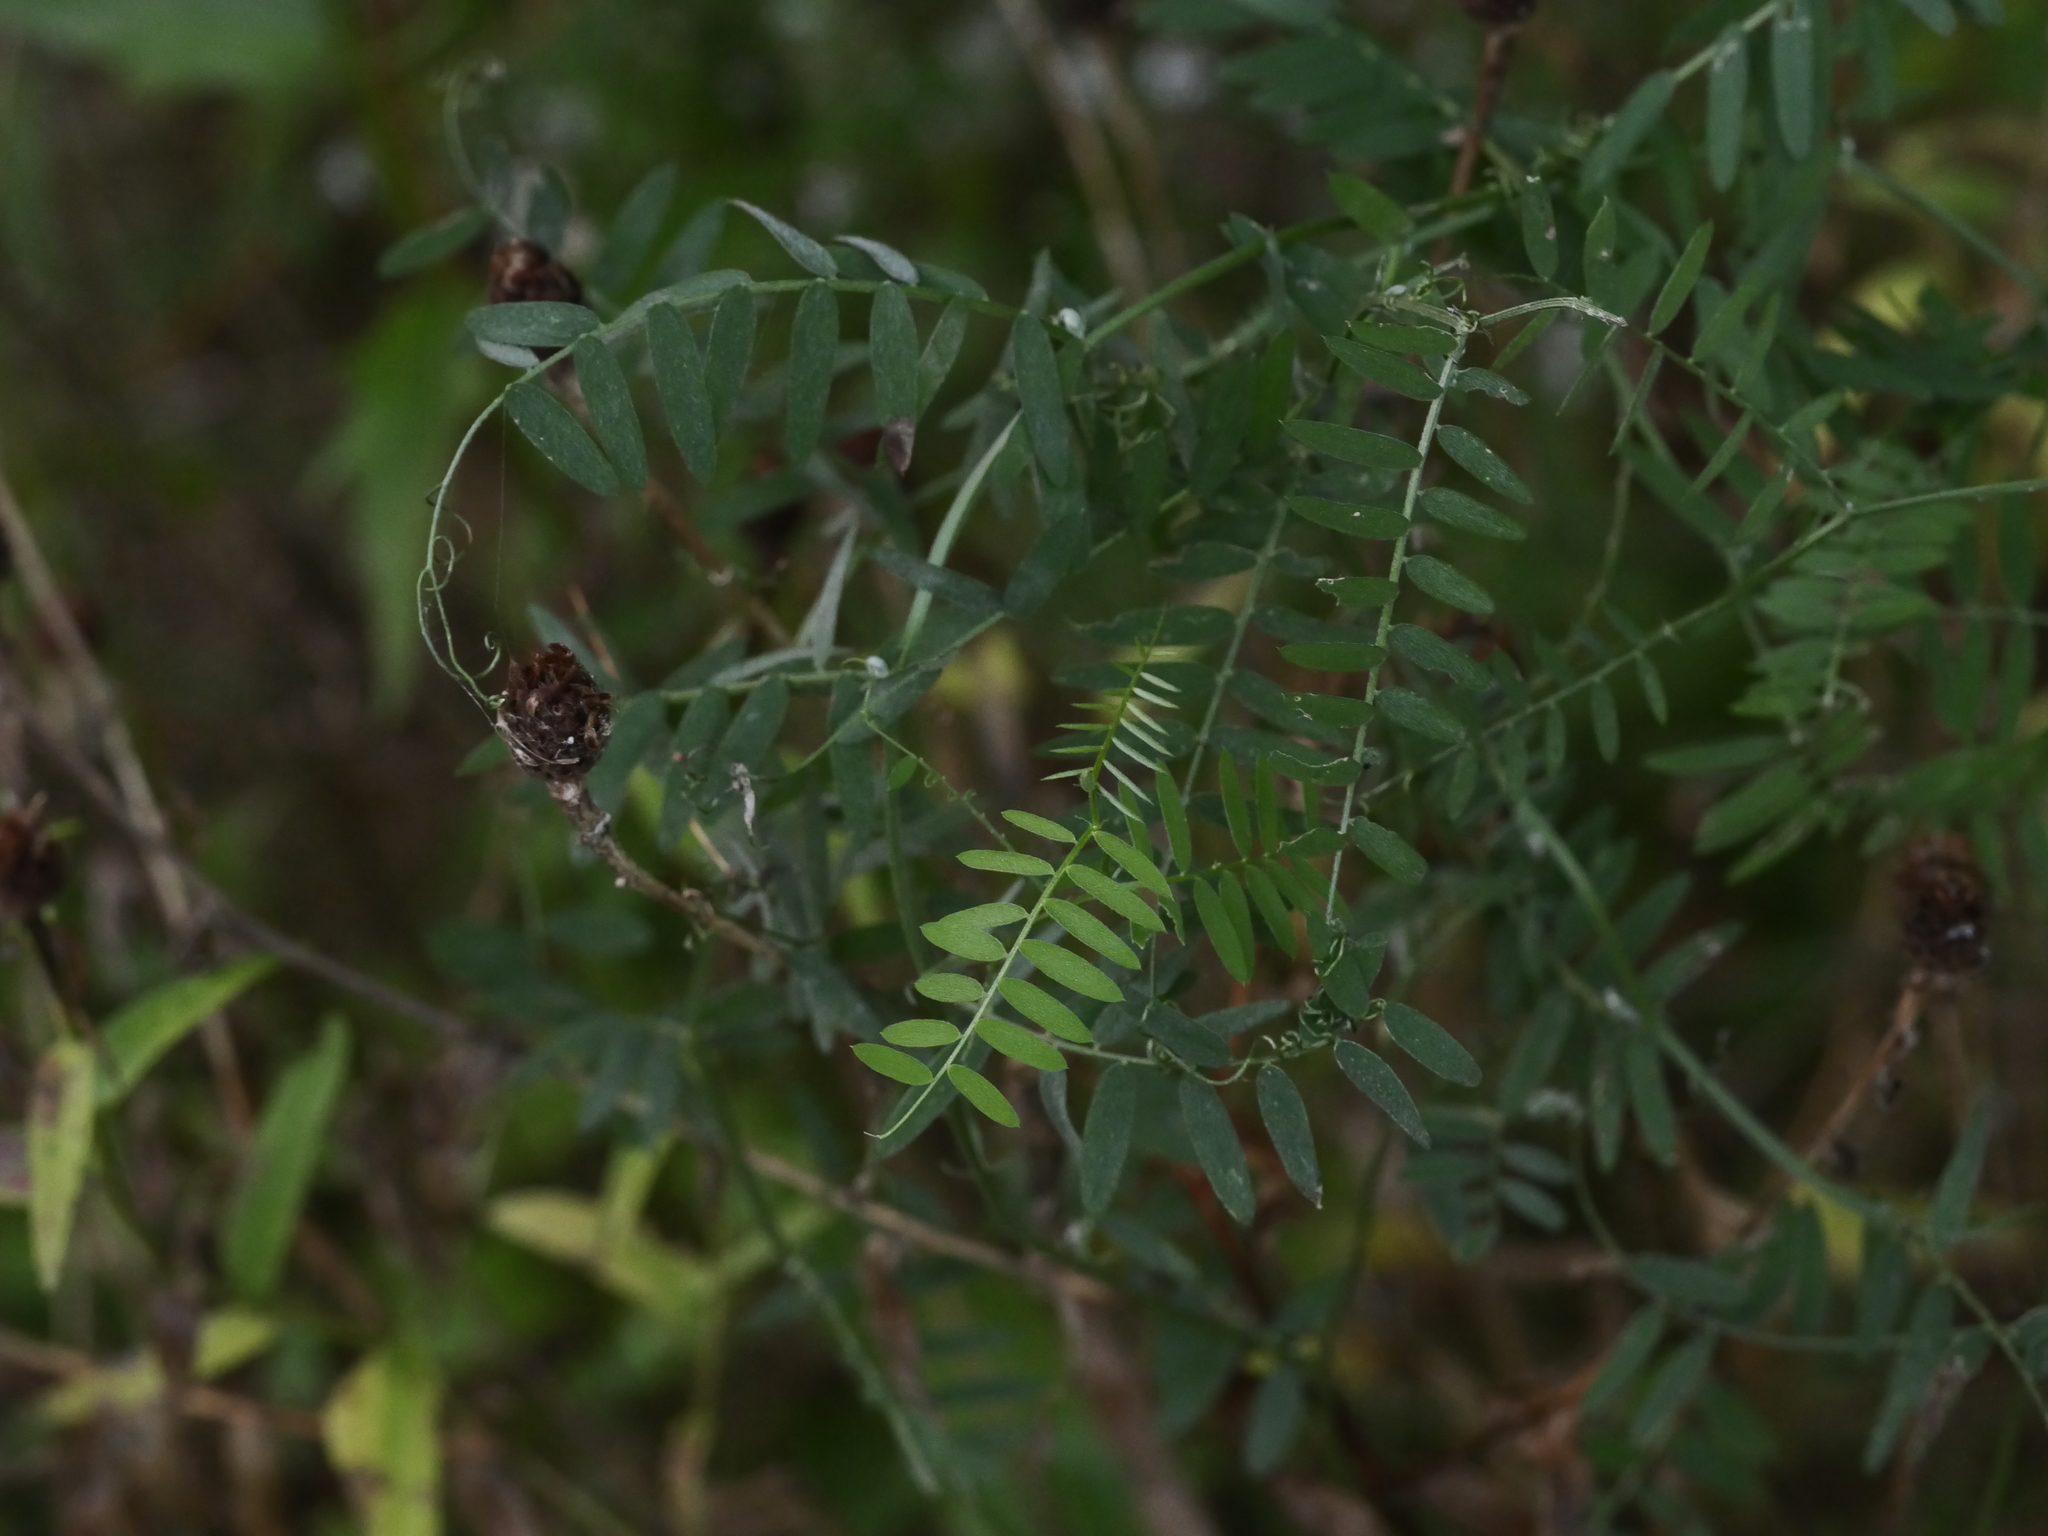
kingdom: Plantae
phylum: Tracheophyta
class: Magnoliopsida
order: Fabales
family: Fabaceae
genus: Vicia
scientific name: Vicia cracca
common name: Bird vetch
